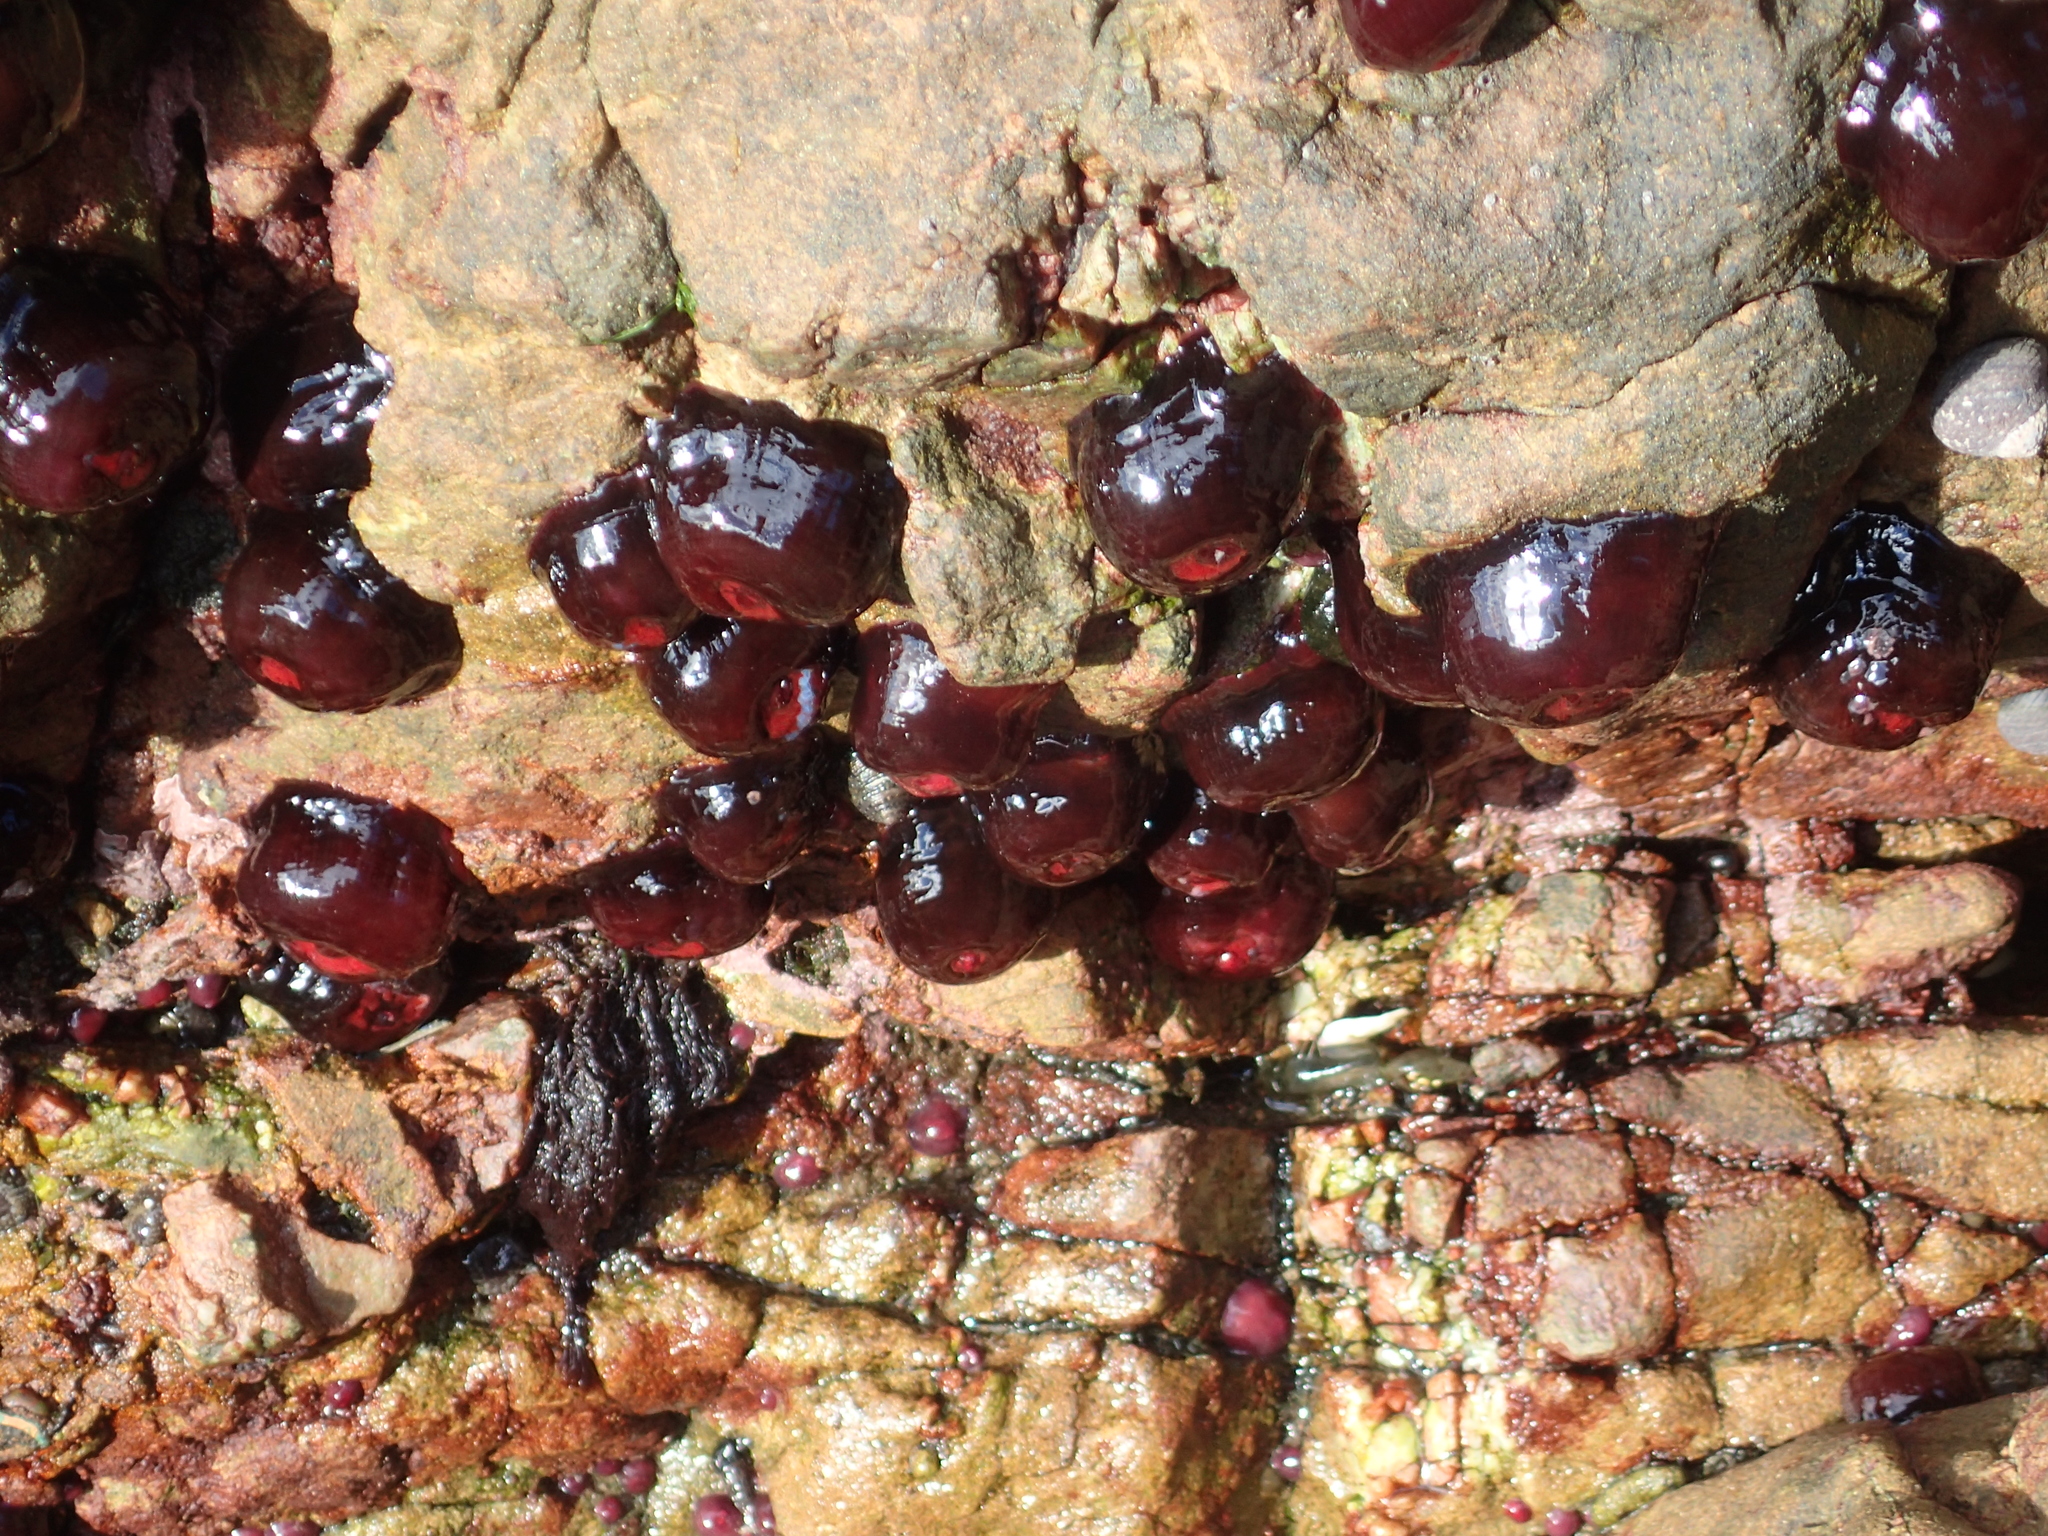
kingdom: Animalia
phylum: Cnidaria
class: Anthozoa
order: Actiniaria
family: Actiniidae
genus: Actinia
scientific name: Actinia tenebrosa
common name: Waratah anemone
